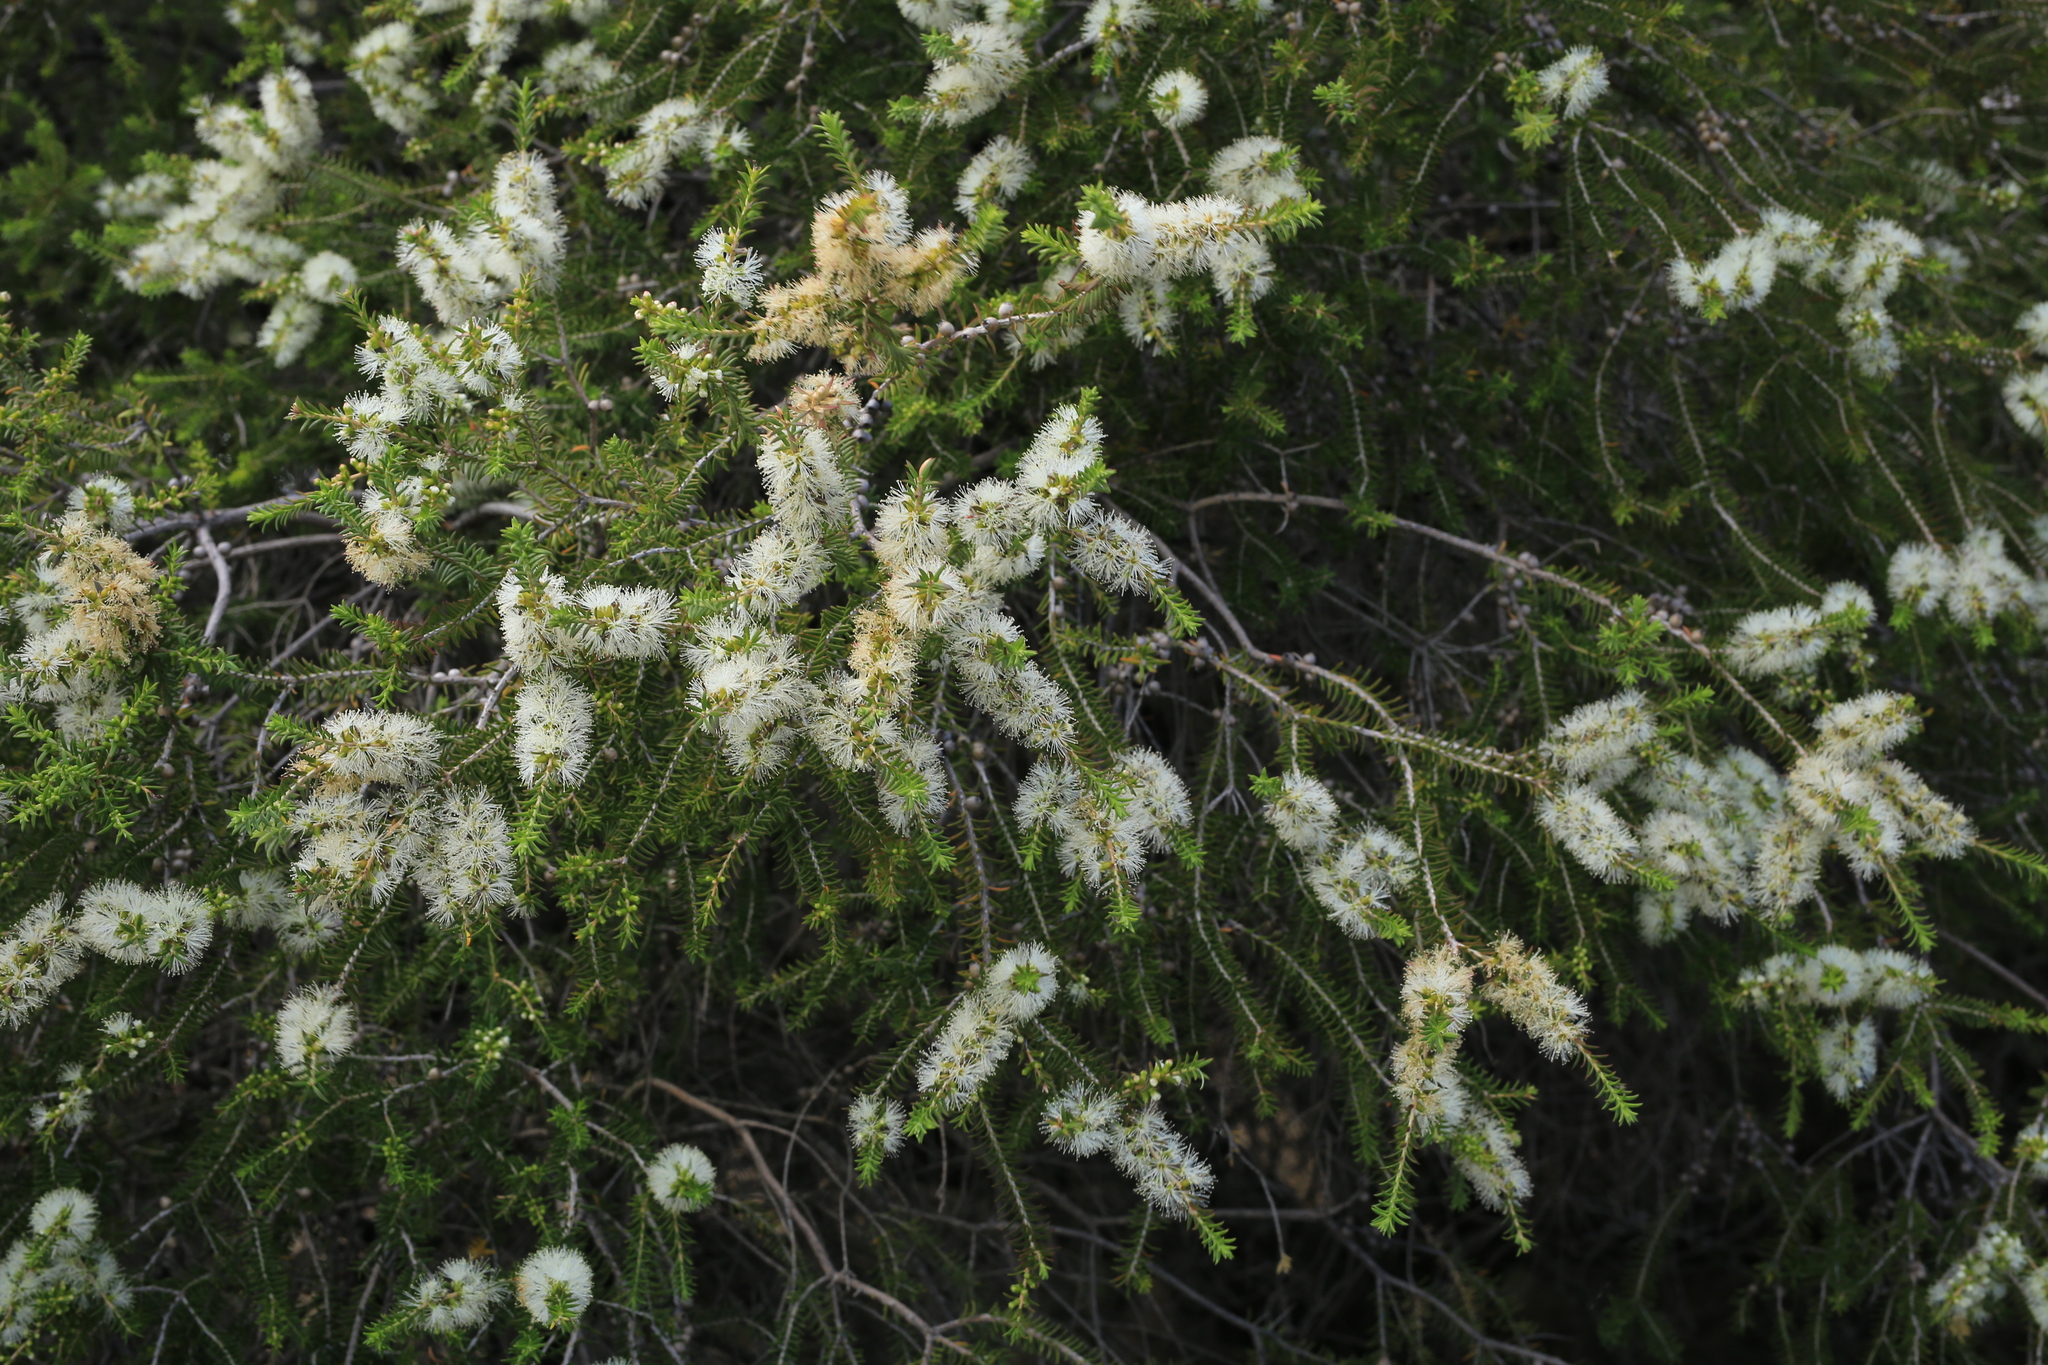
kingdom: Plantae
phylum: Tracheophyta
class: Magnoliopsida
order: Myrtales
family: Myrtaceae
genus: Melaleuca
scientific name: Melaleuca lanceolata
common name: Rottnest island teatree
